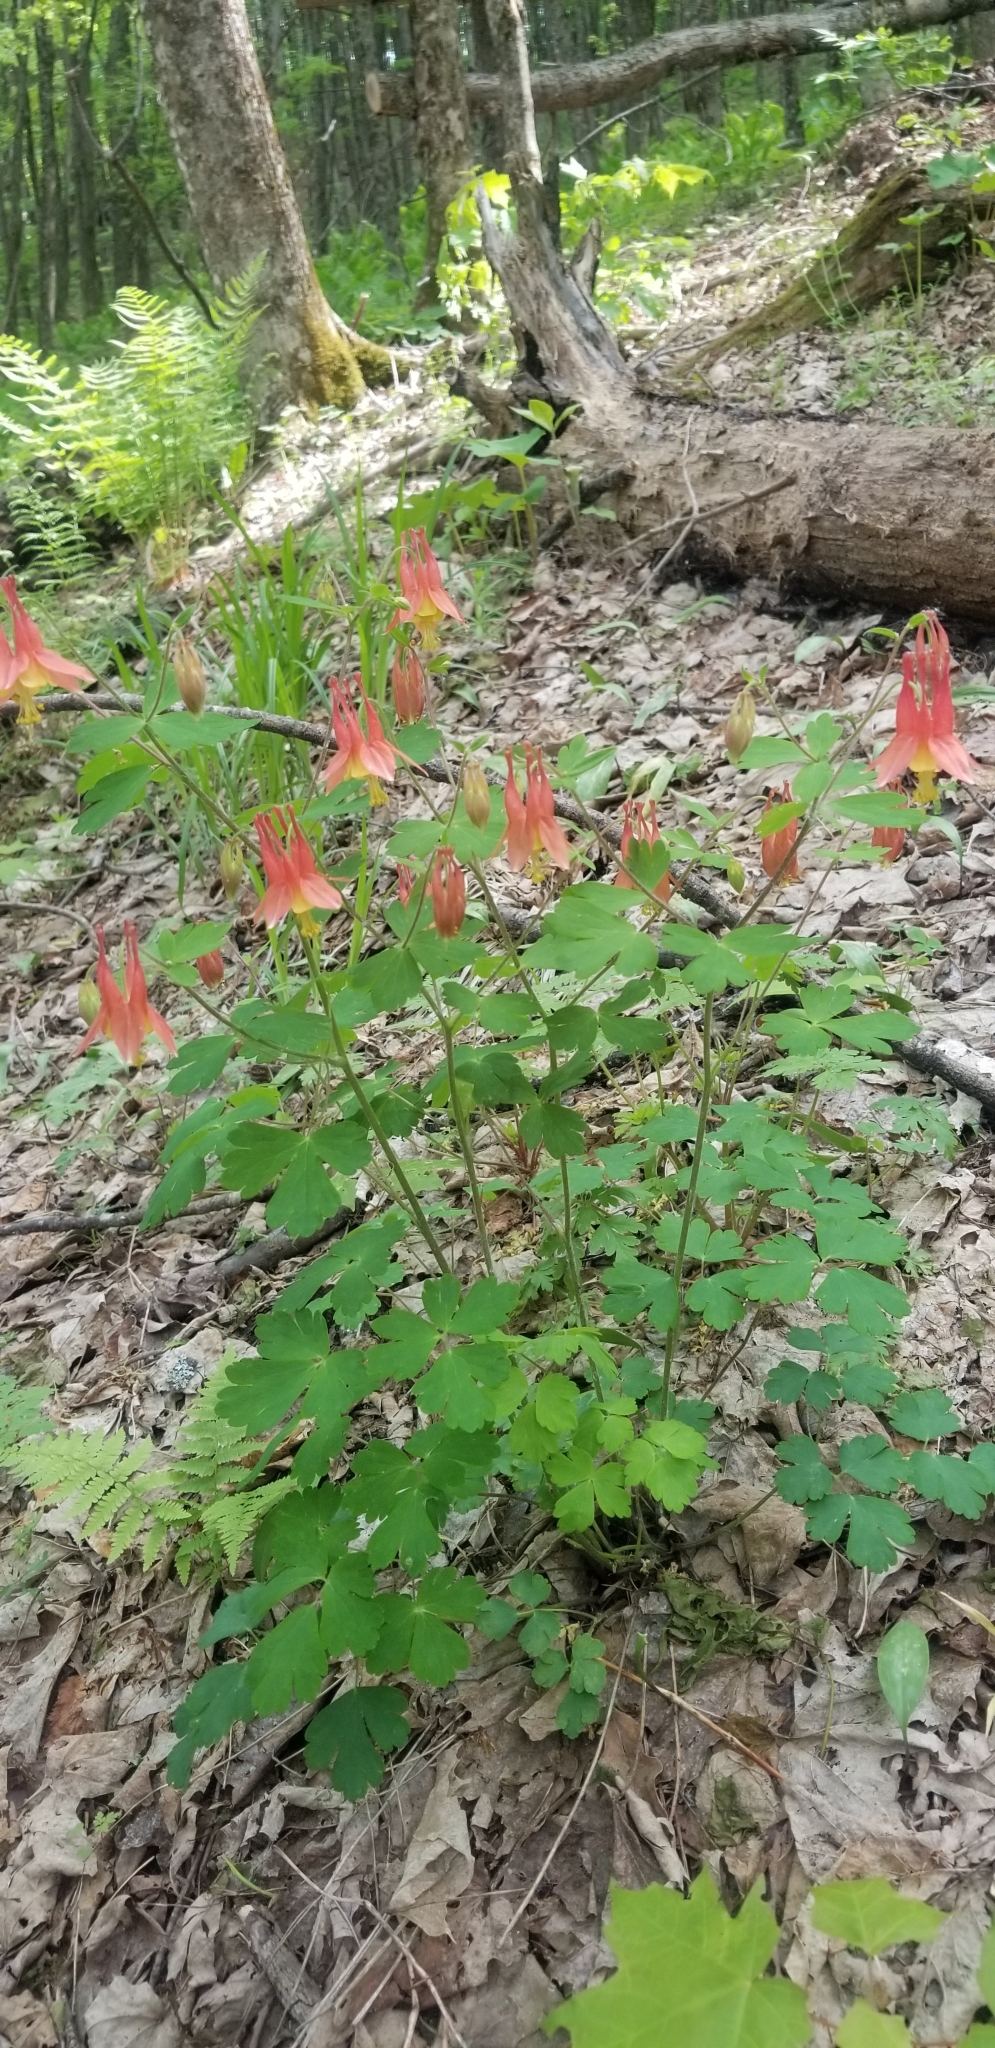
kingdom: Plantae
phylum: Tracheophyta
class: Magnoliopsida
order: Ranunculales
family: Ranunculaceae
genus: Aquilegia
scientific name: Aquilegia canadensis
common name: American columbine
